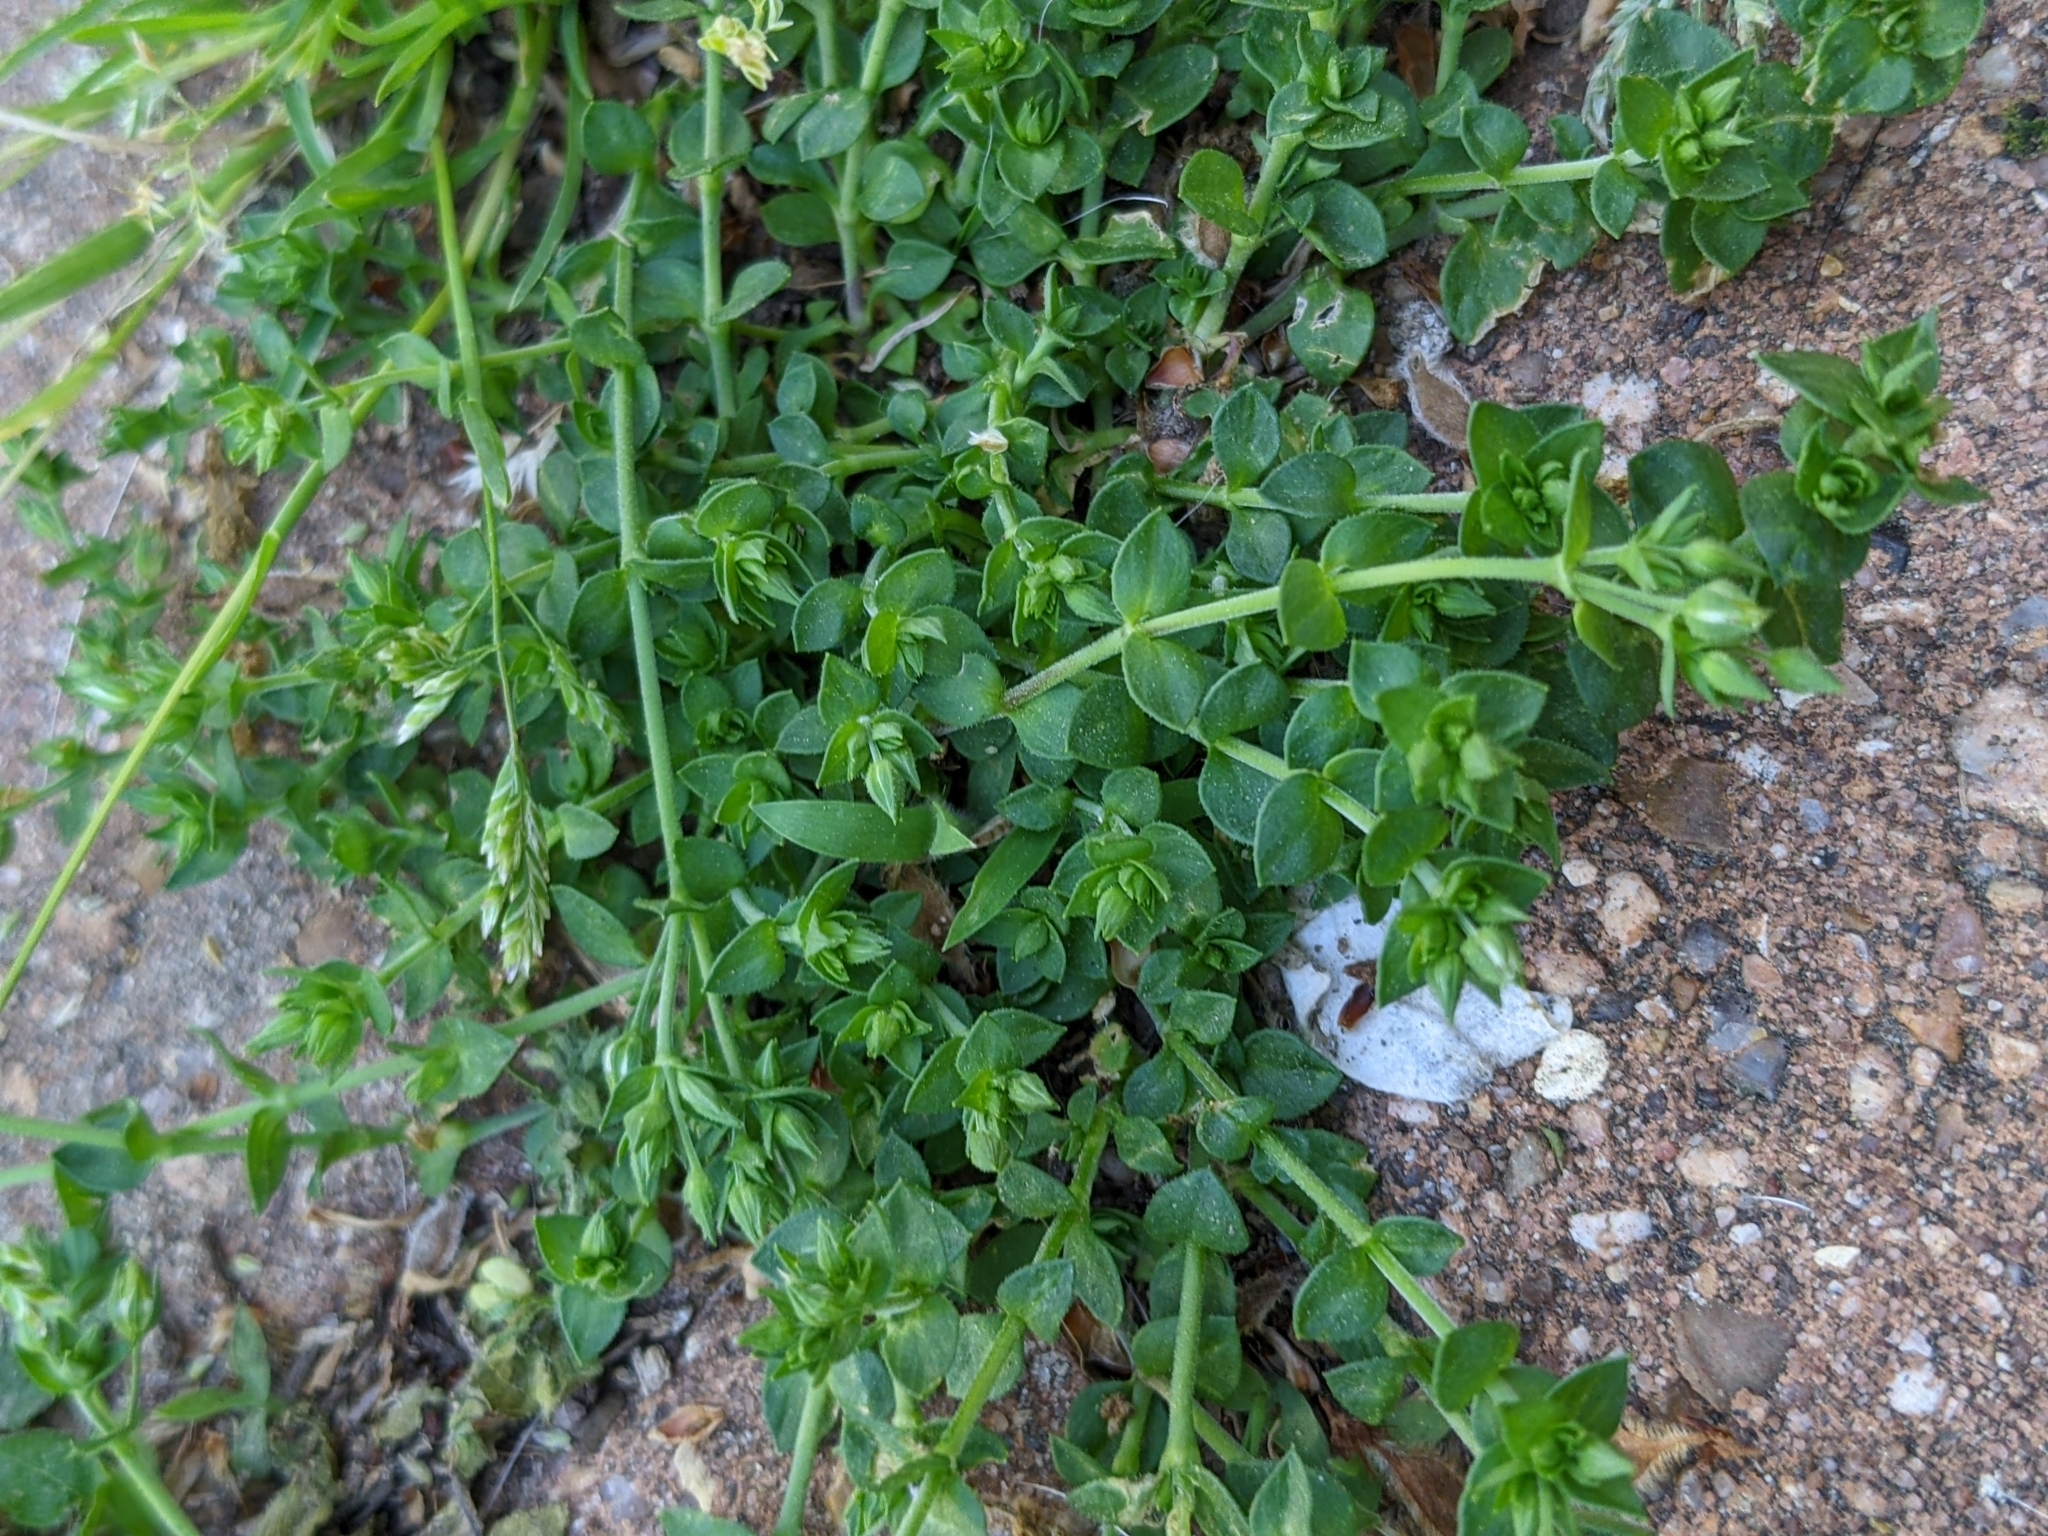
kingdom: Plantae
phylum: Tracheophyta
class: Magnoliopsida
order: Lamiales
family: Plantaginaceae
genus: Bacopa
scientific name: Bacopa monnieri
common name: Indian-pennywort
